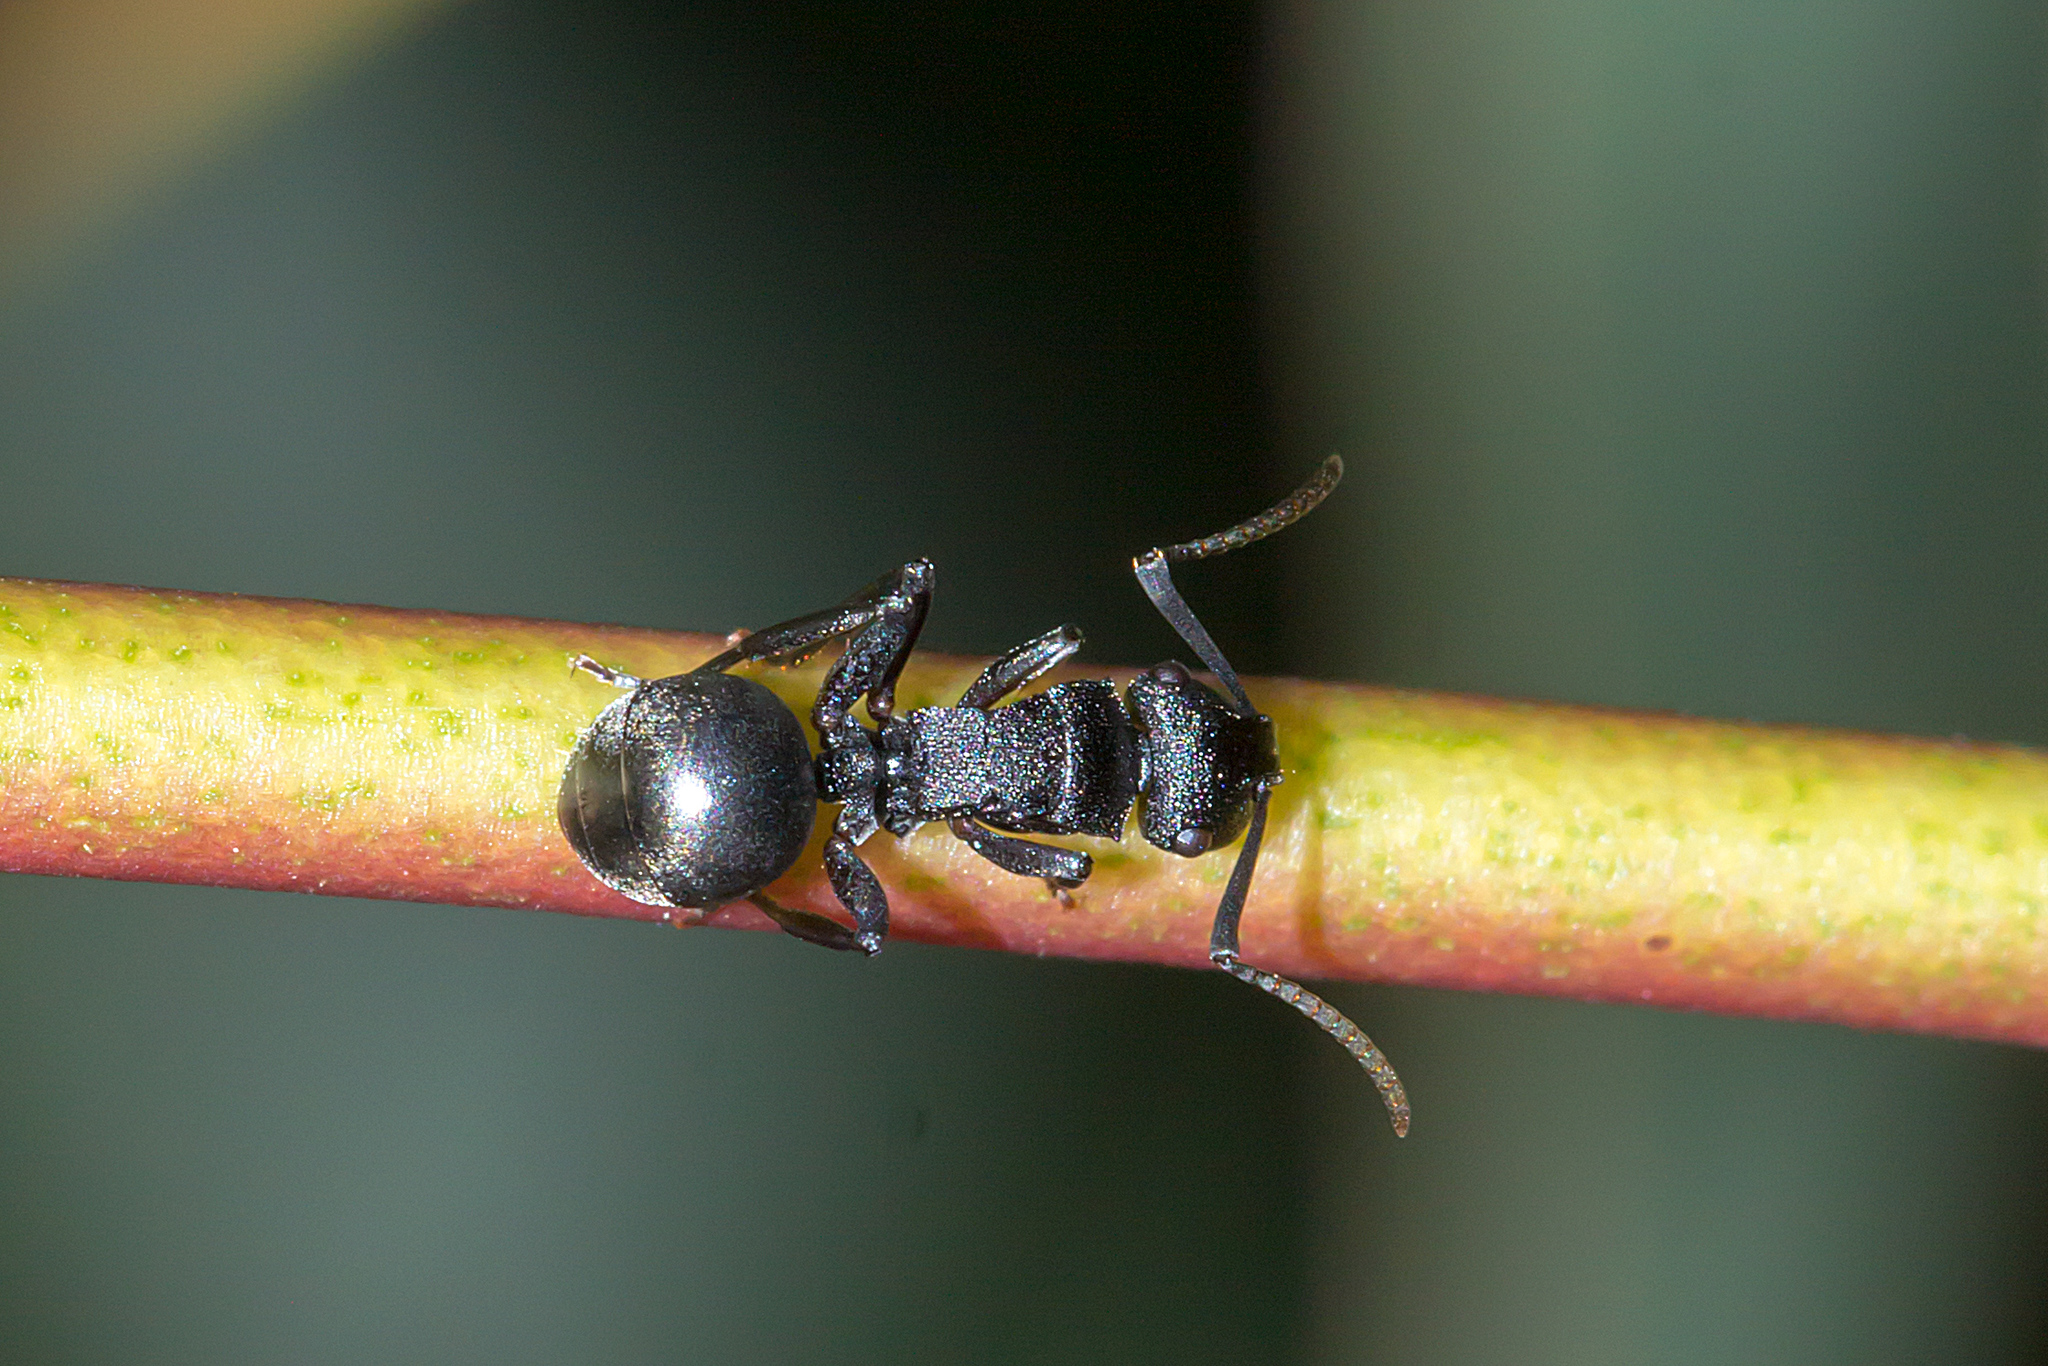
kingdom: Animalia
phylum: Arthropoda
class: Insecta
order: Hymenoptera
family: Formicidae
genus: Polyrhachis
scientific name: Polyrhachis phryne
